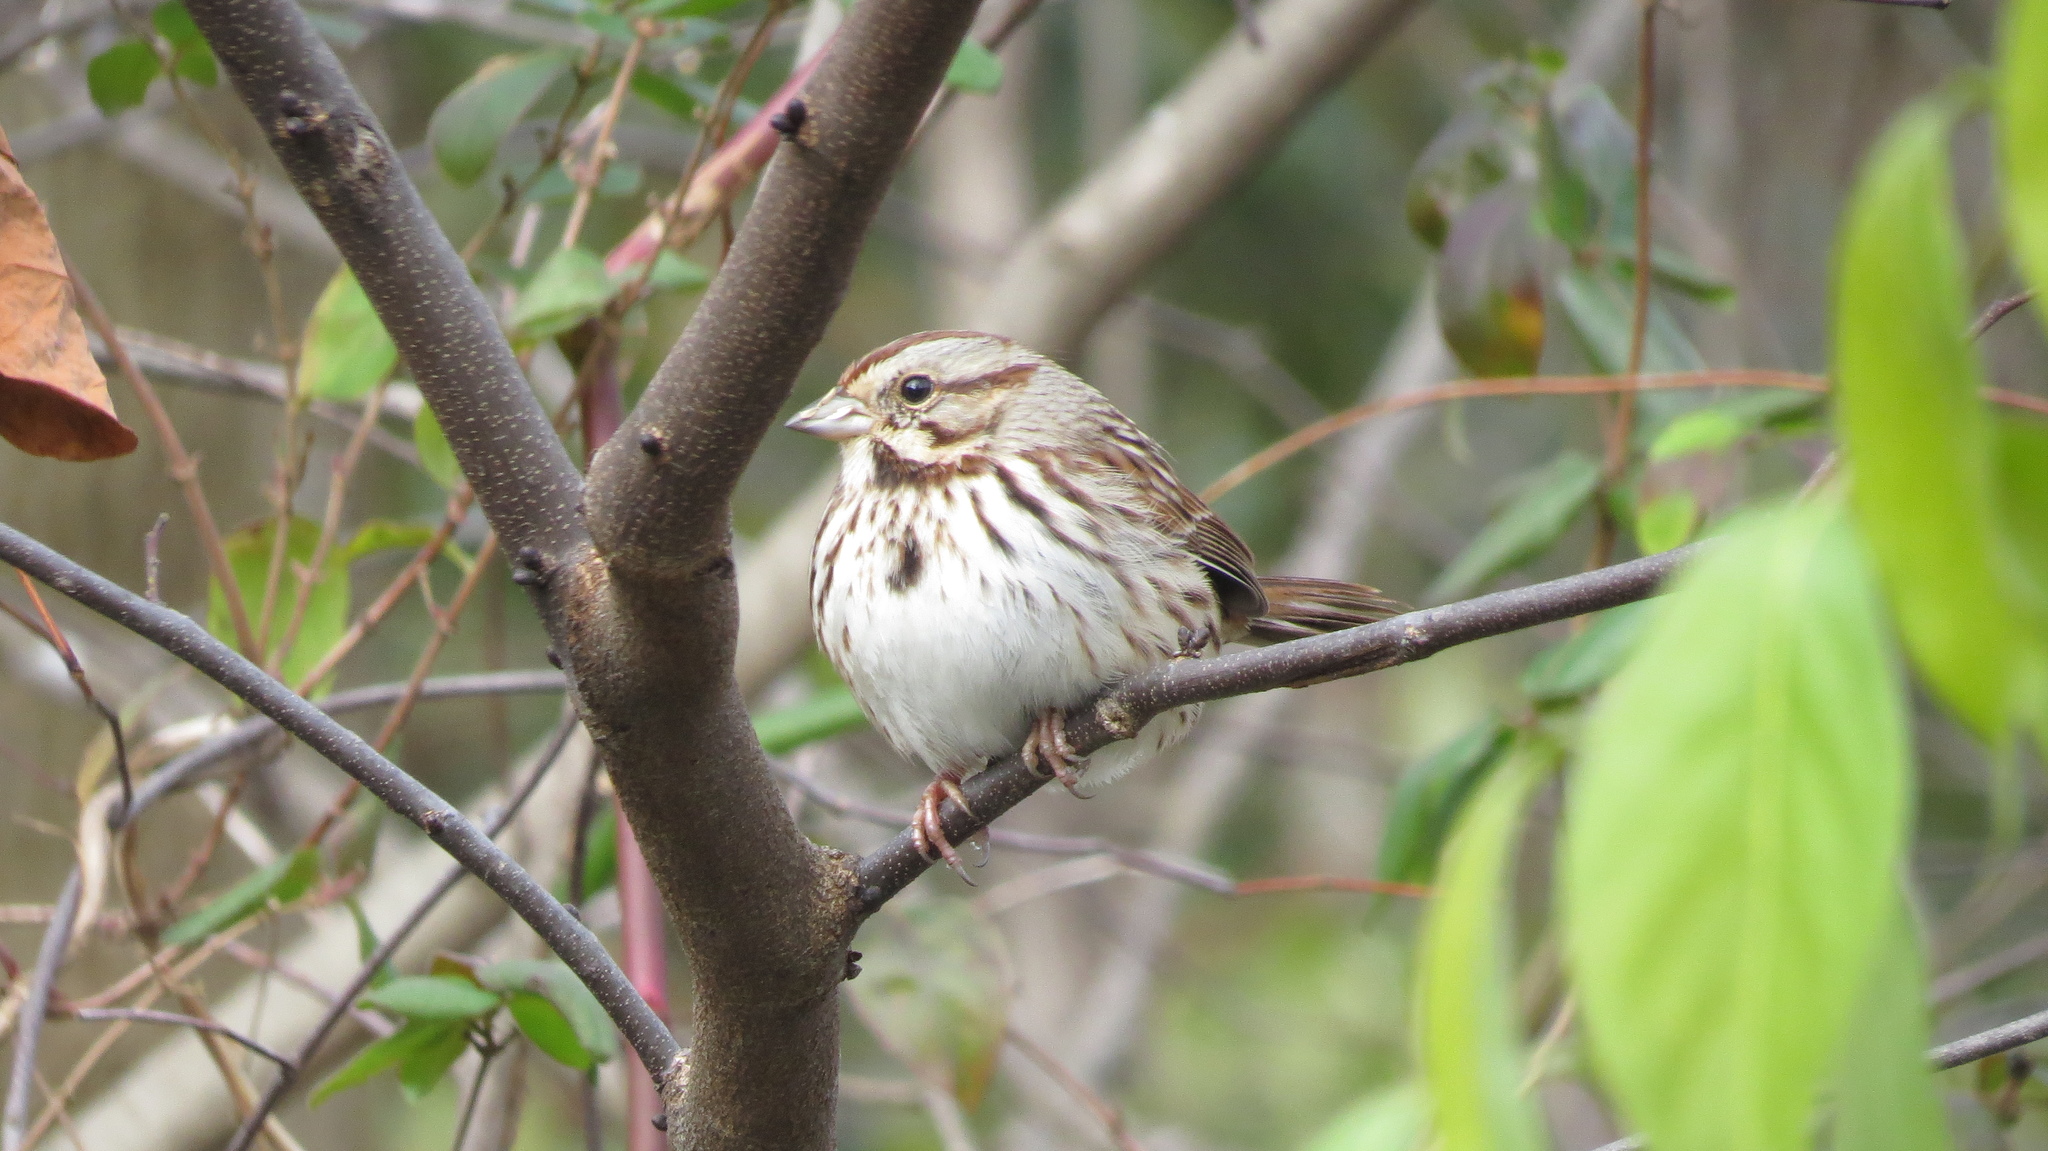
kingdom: Animalia
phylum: Chordata
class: Aves
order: Passeriformes
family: Passerellidae
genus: Melospiza
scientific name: Melospiza melodia
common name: Song sparrow
